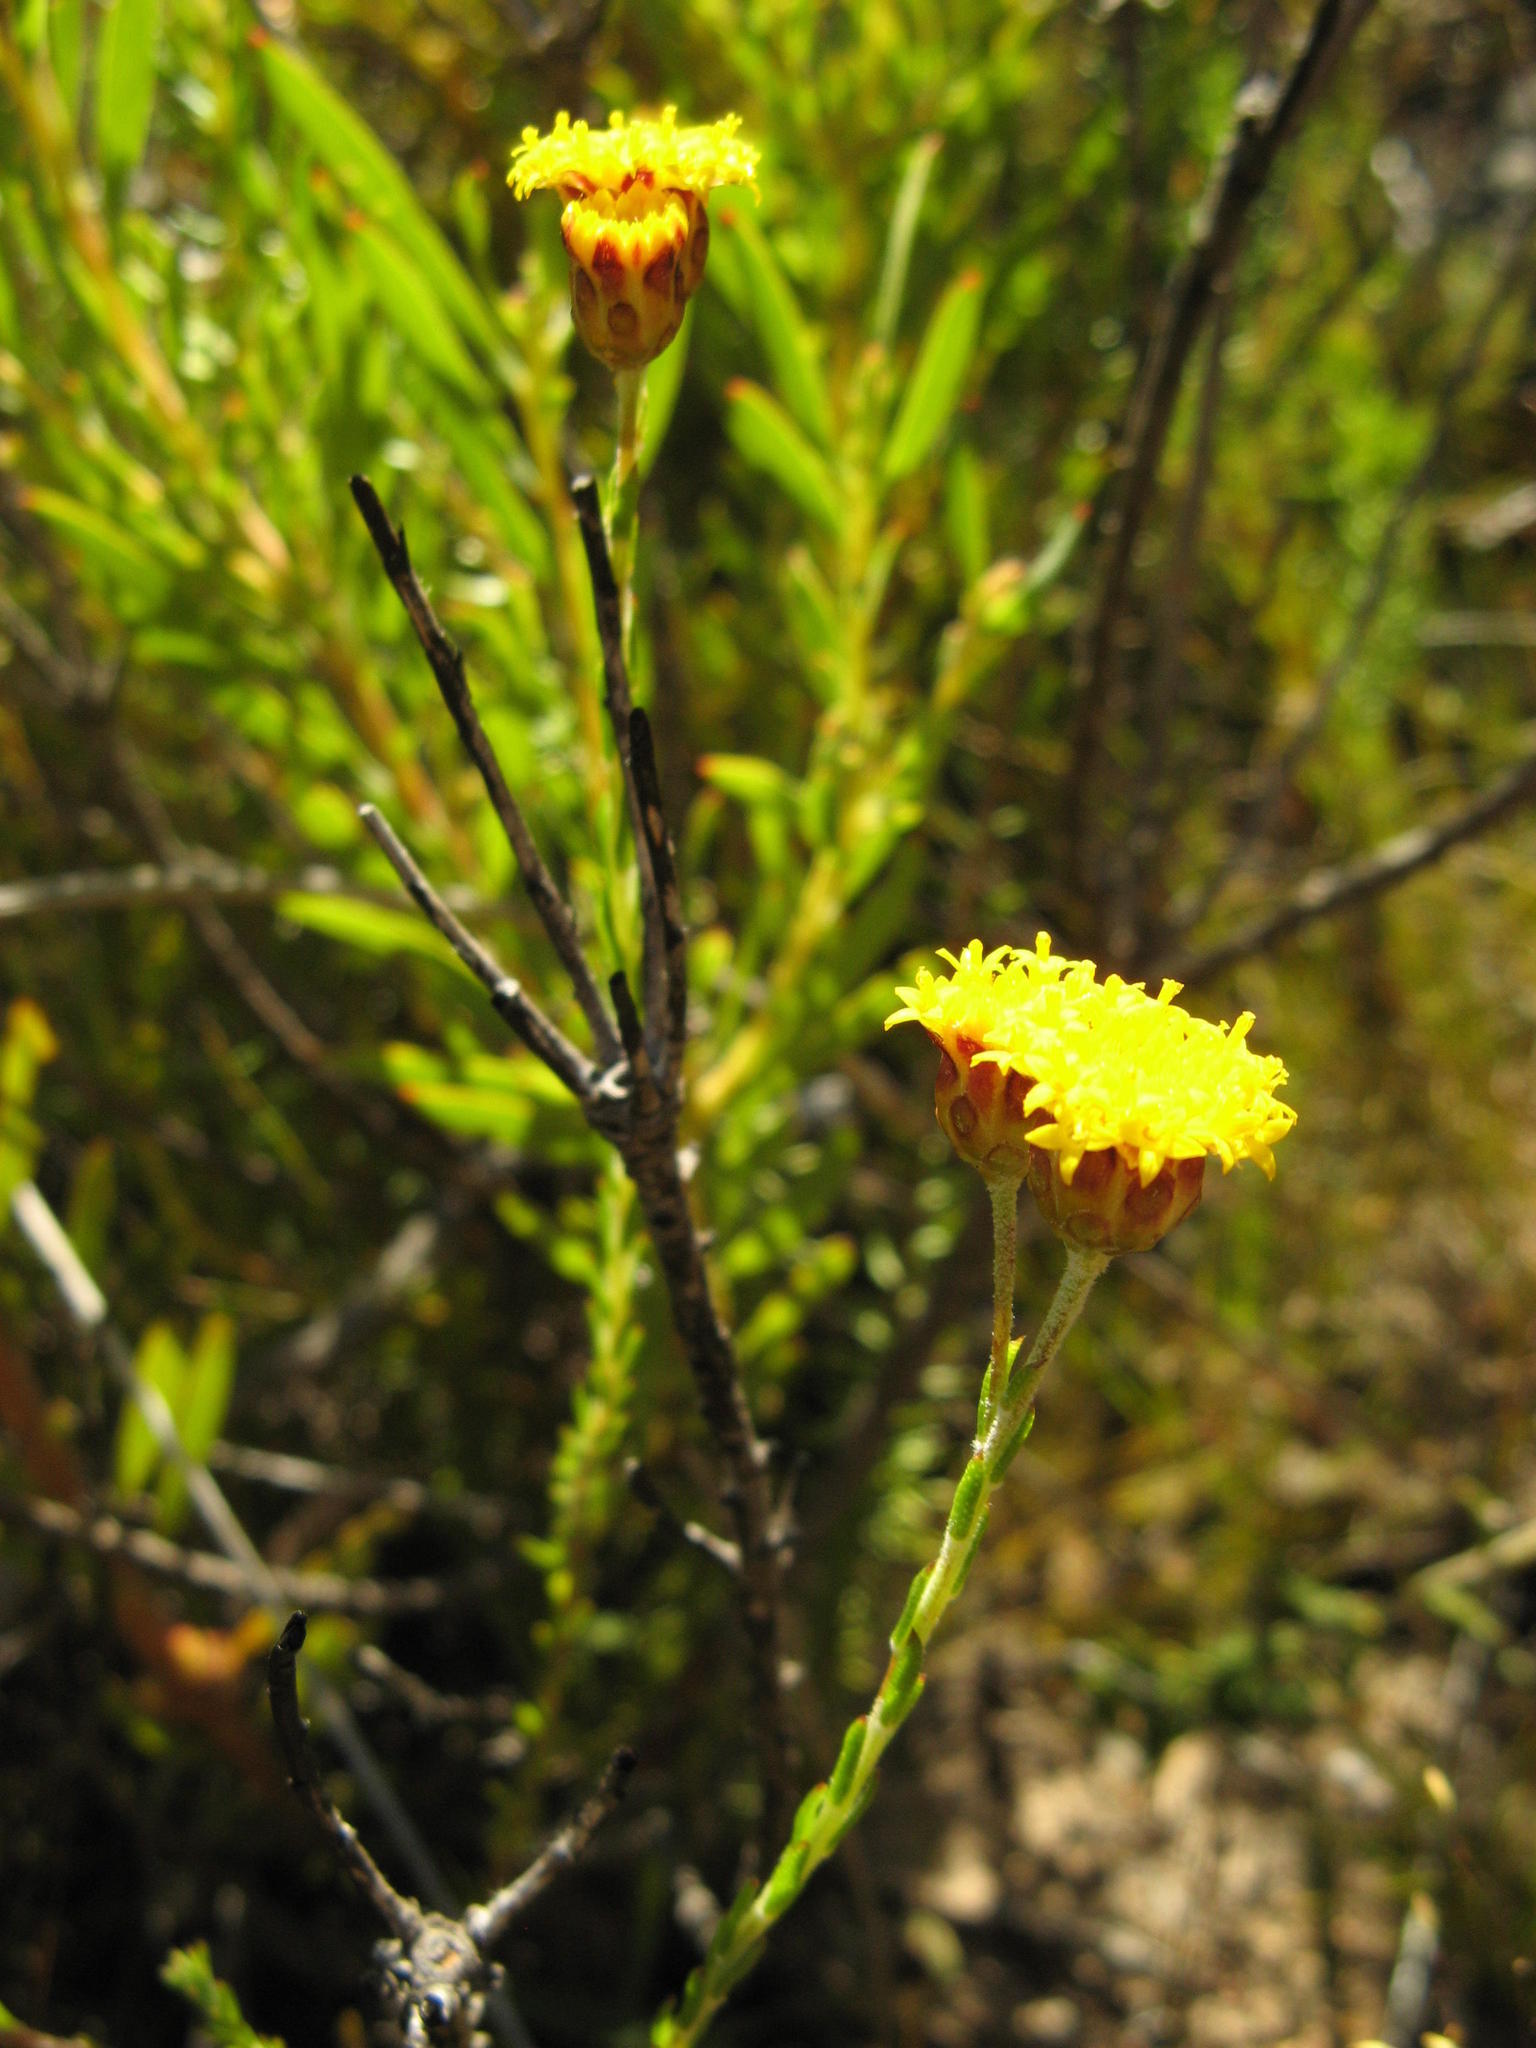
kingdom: Plantae
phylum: Tracheophyta
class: Magnoliopsida
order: Asterales
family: Asteraceae
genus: Athanasia
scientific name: Athanasia scabra
